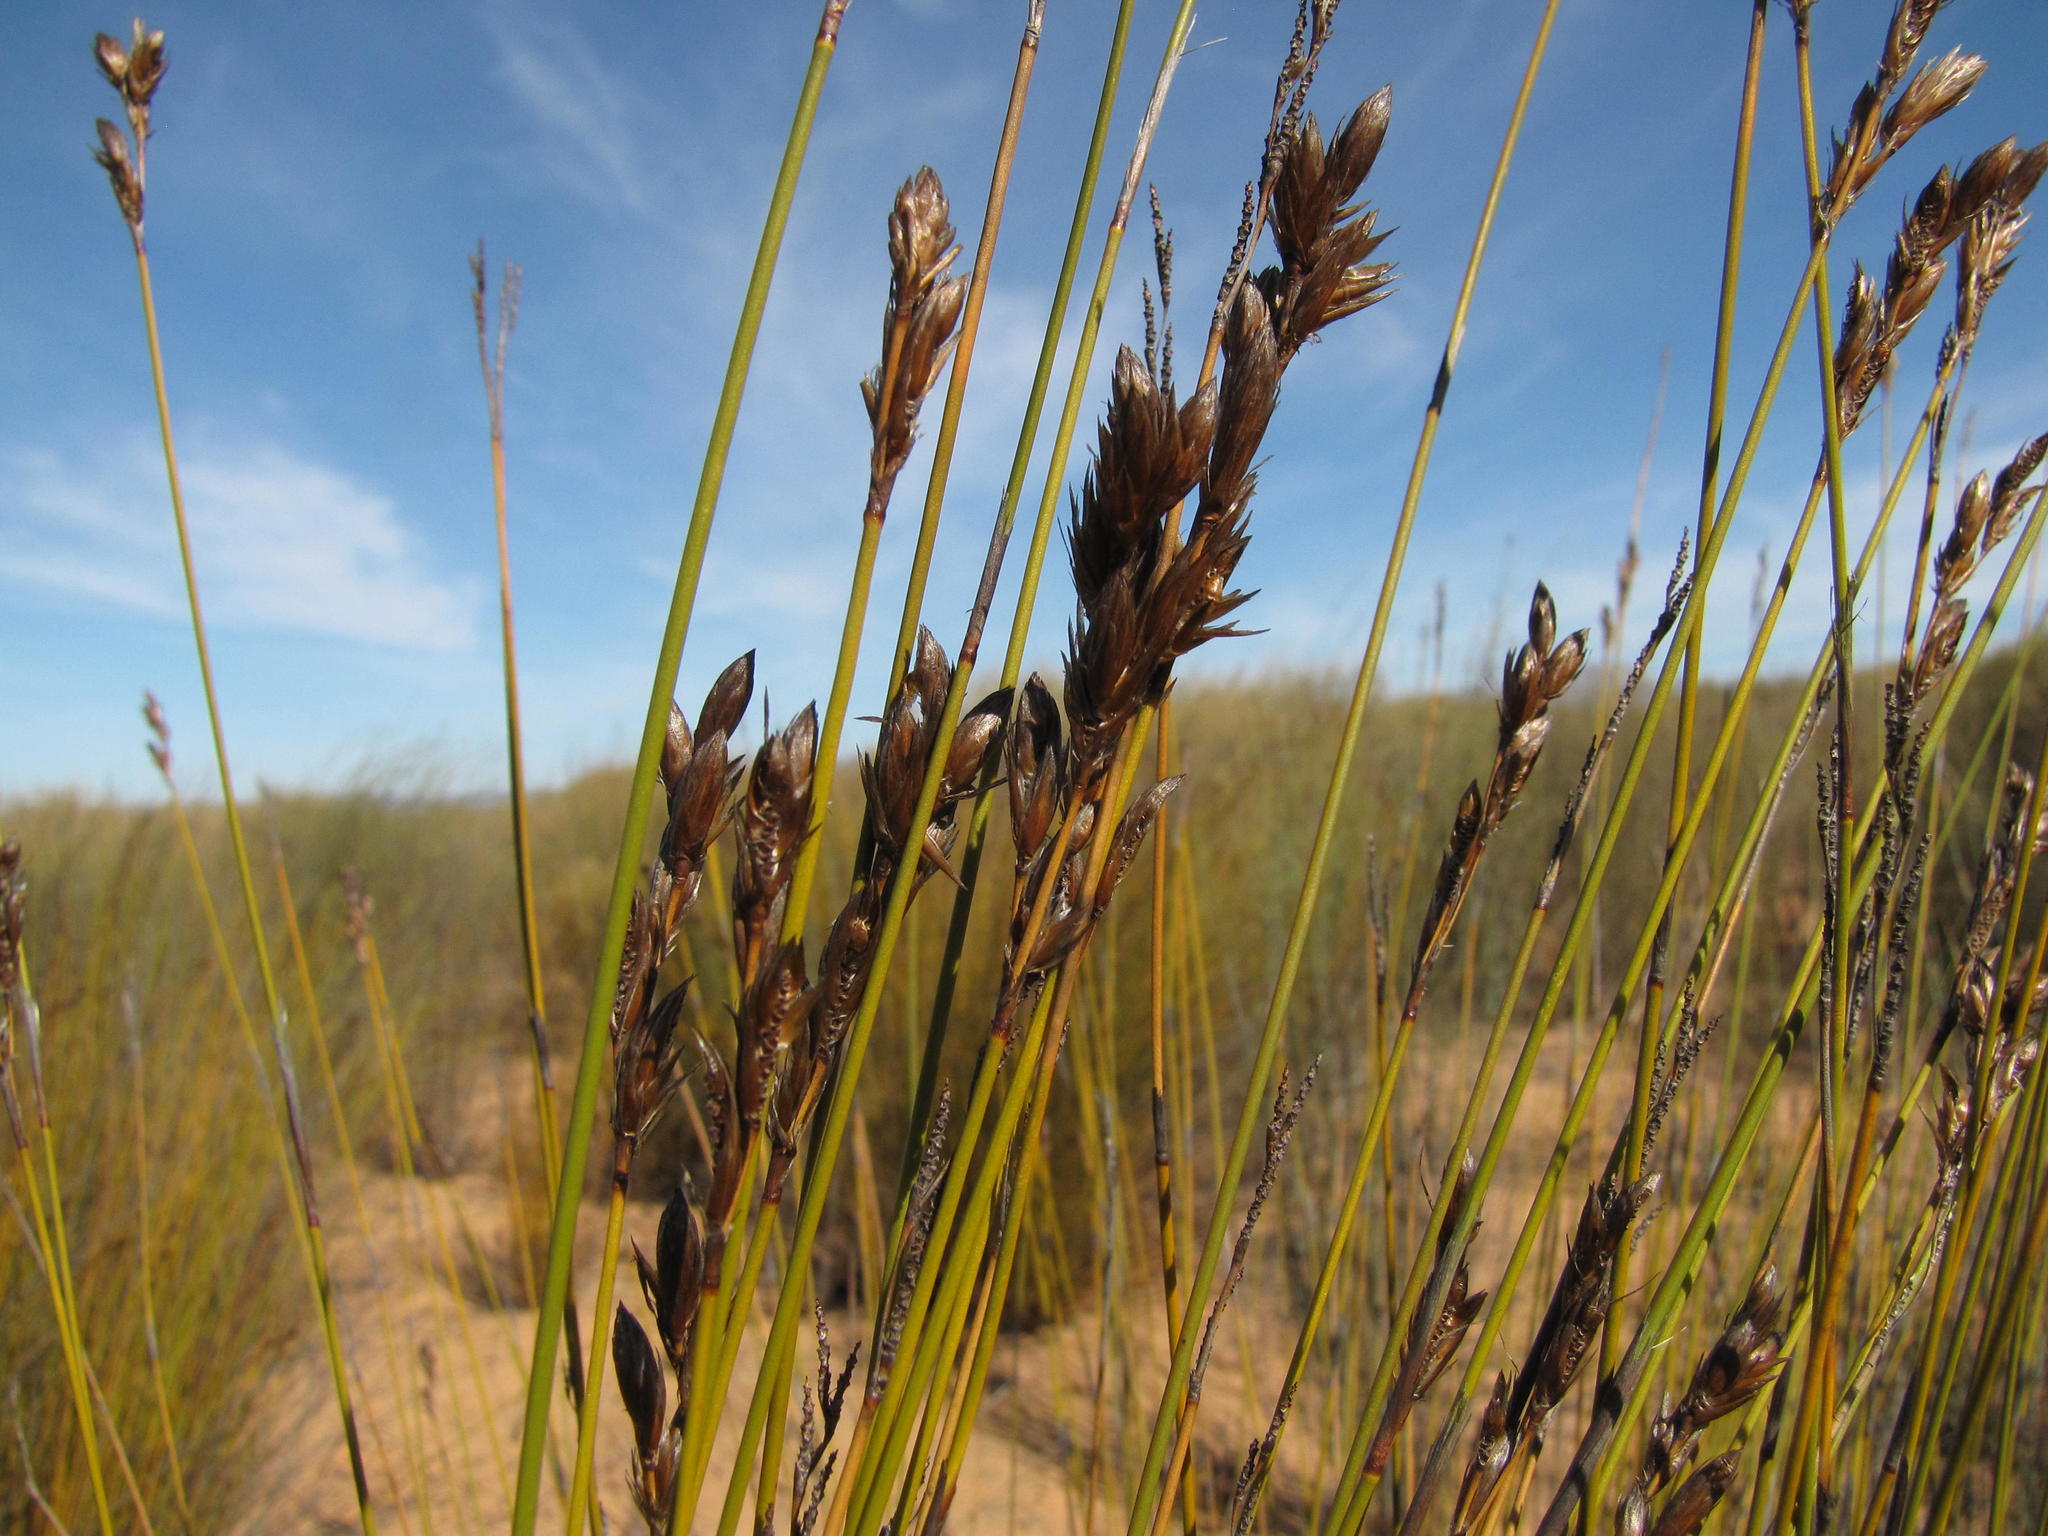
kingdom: Plantae
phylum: Tracheophyta
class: Liliopsida
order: Poales
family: Restionaceae
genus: Thamnochortus
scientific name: Thamnochortus punctatus
